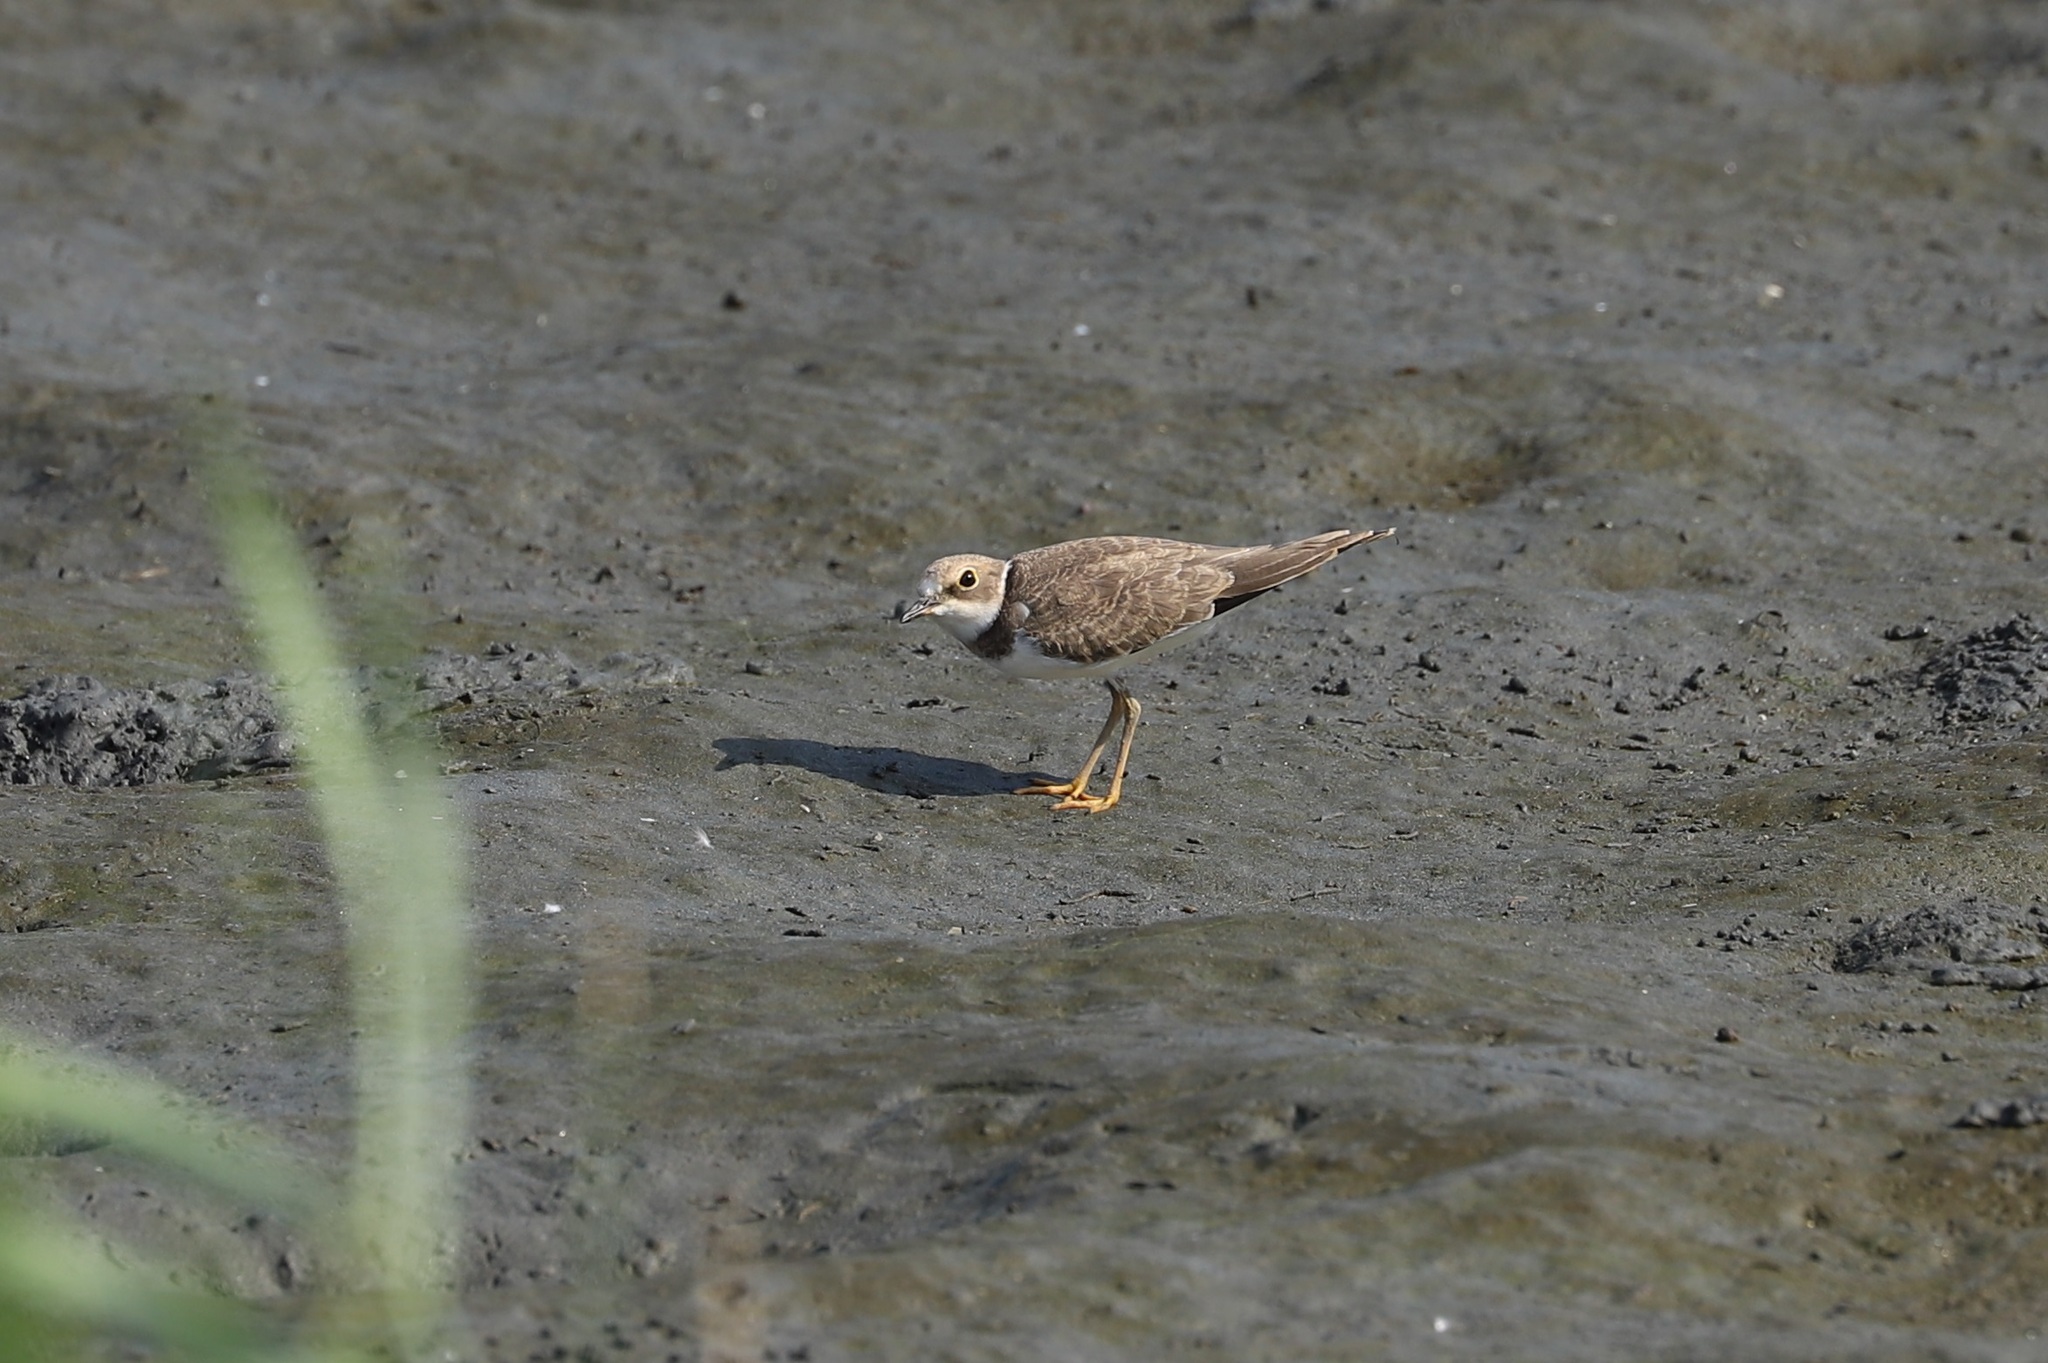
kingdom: Animalia
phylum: Chordata
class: Aves
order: Charadriiformes
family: Charadriidae
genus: Charadrius
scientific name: Charadrius dubius
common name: Little ringed plover
